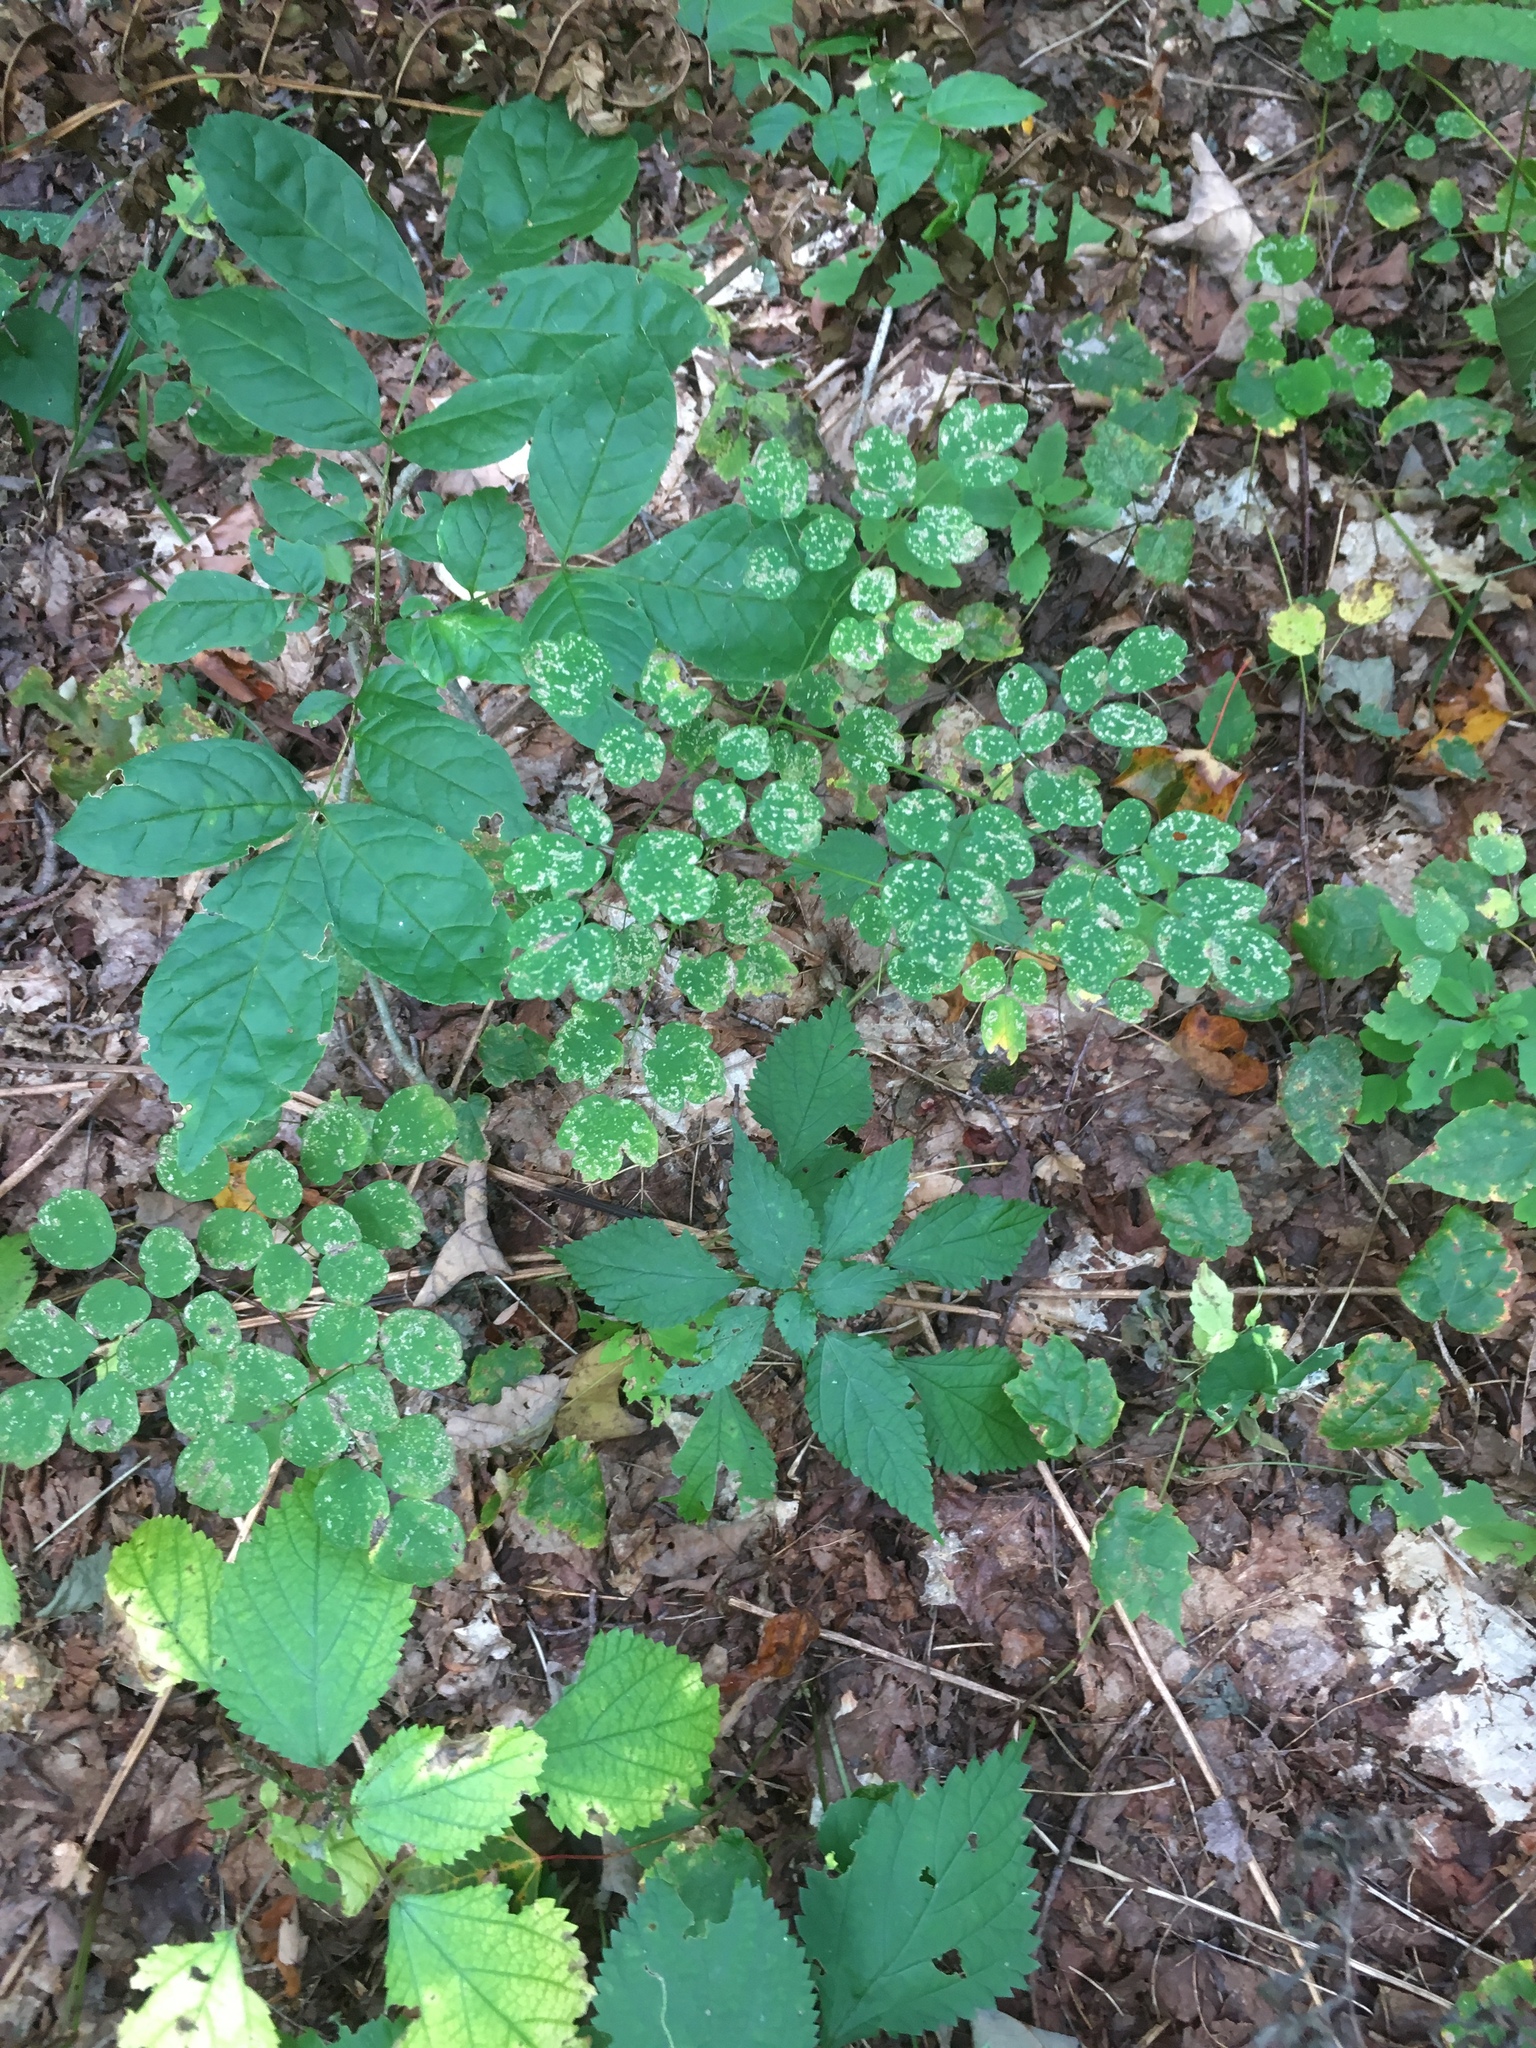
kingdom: Plantae
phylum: Tracheophyta
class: Magnoliopsida
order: Ranunculales
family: Ranunculaceae
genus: Thalictrum
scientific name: Thalictrum pubescens
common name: King-of-the-meadow
